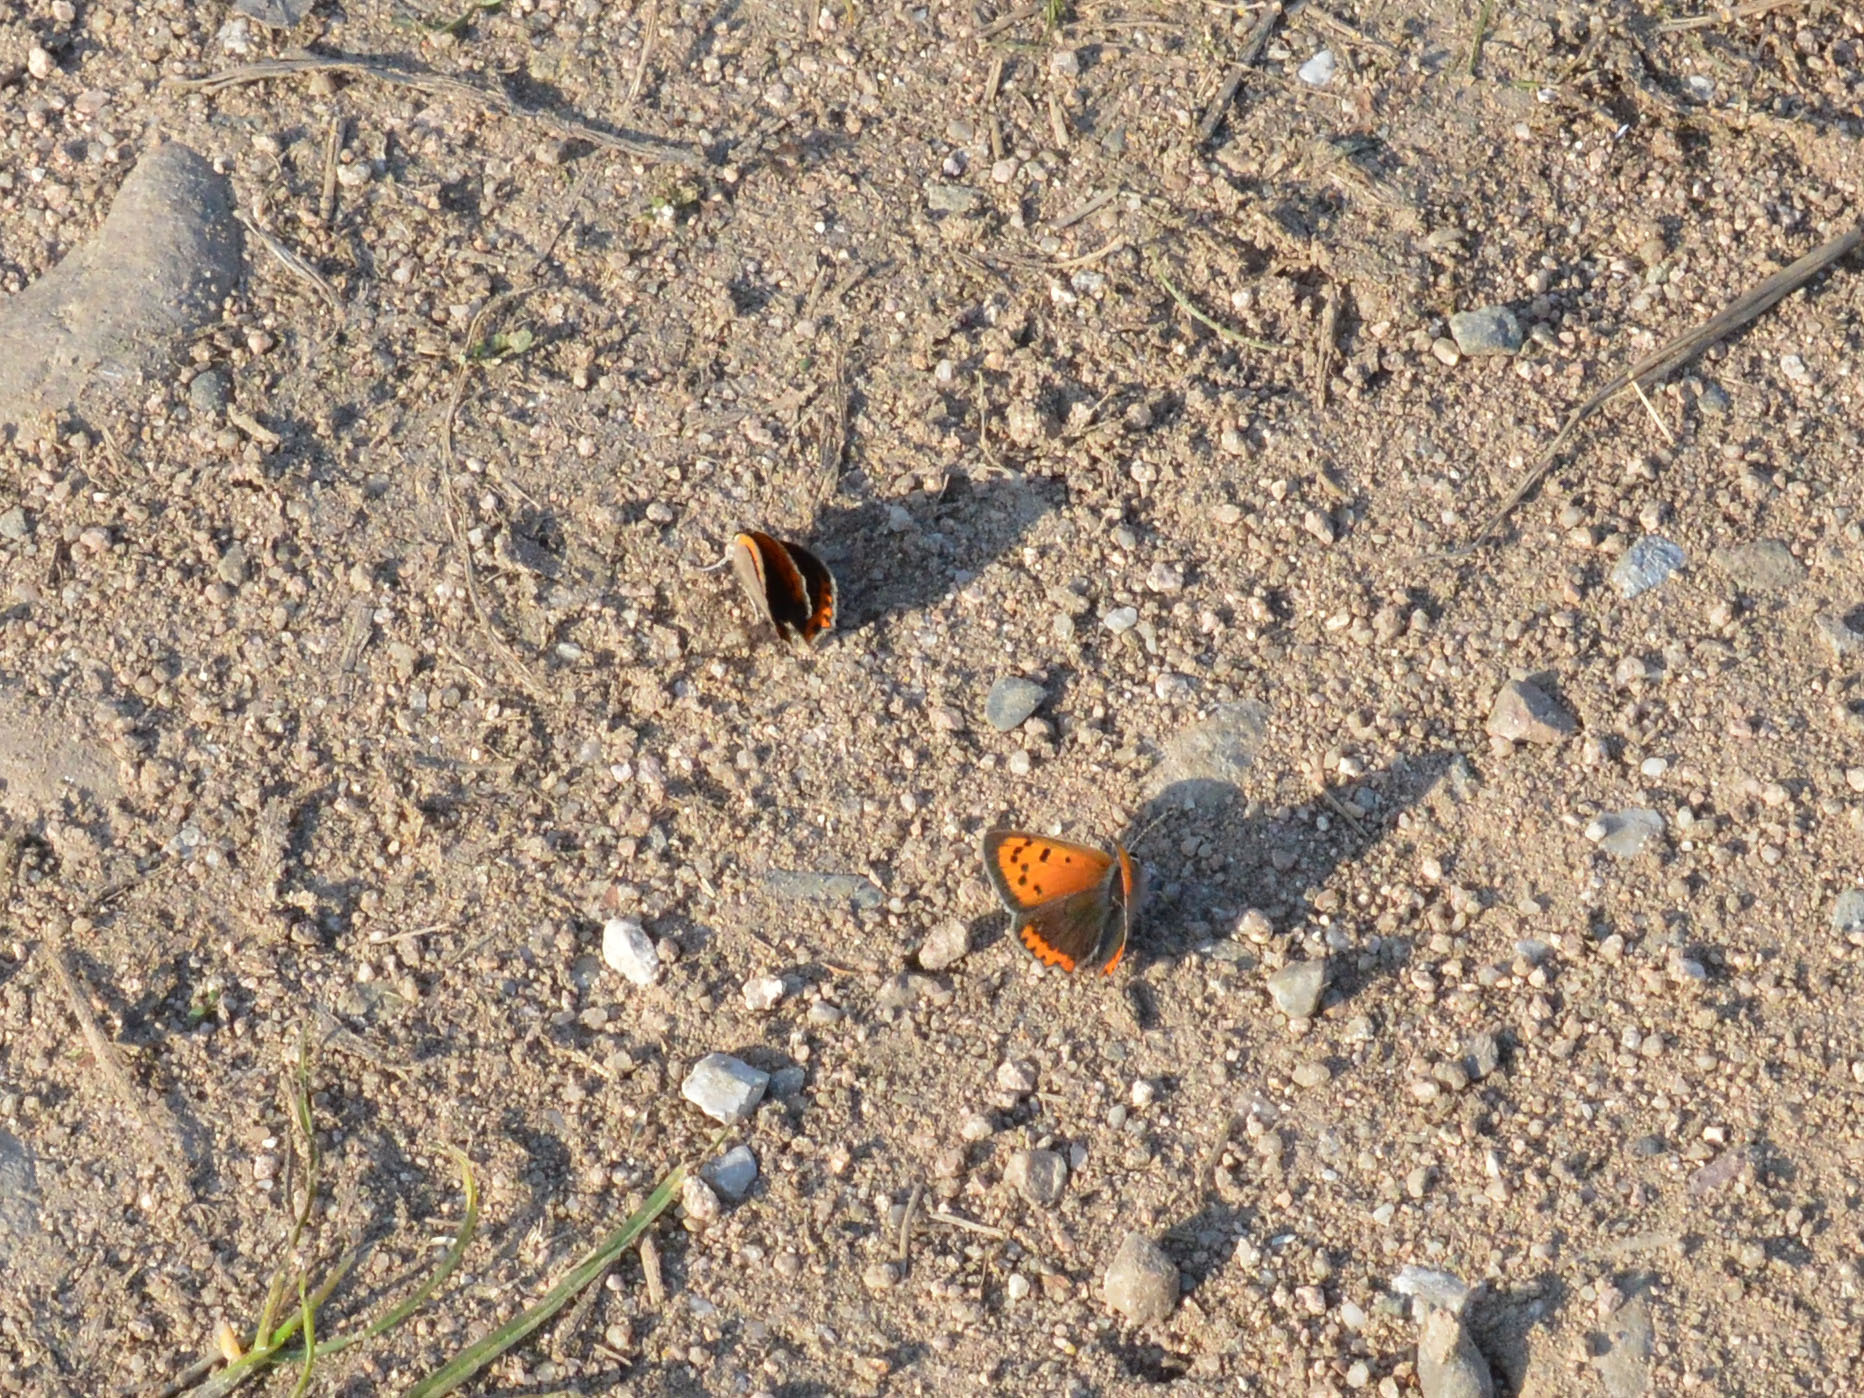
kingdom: Animalia
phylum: Arthropoda
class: Insecta
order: Lepidoptera
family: Lycaenidae
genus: Lycaena
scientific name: Lycaena phlaeas
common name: Small copper
